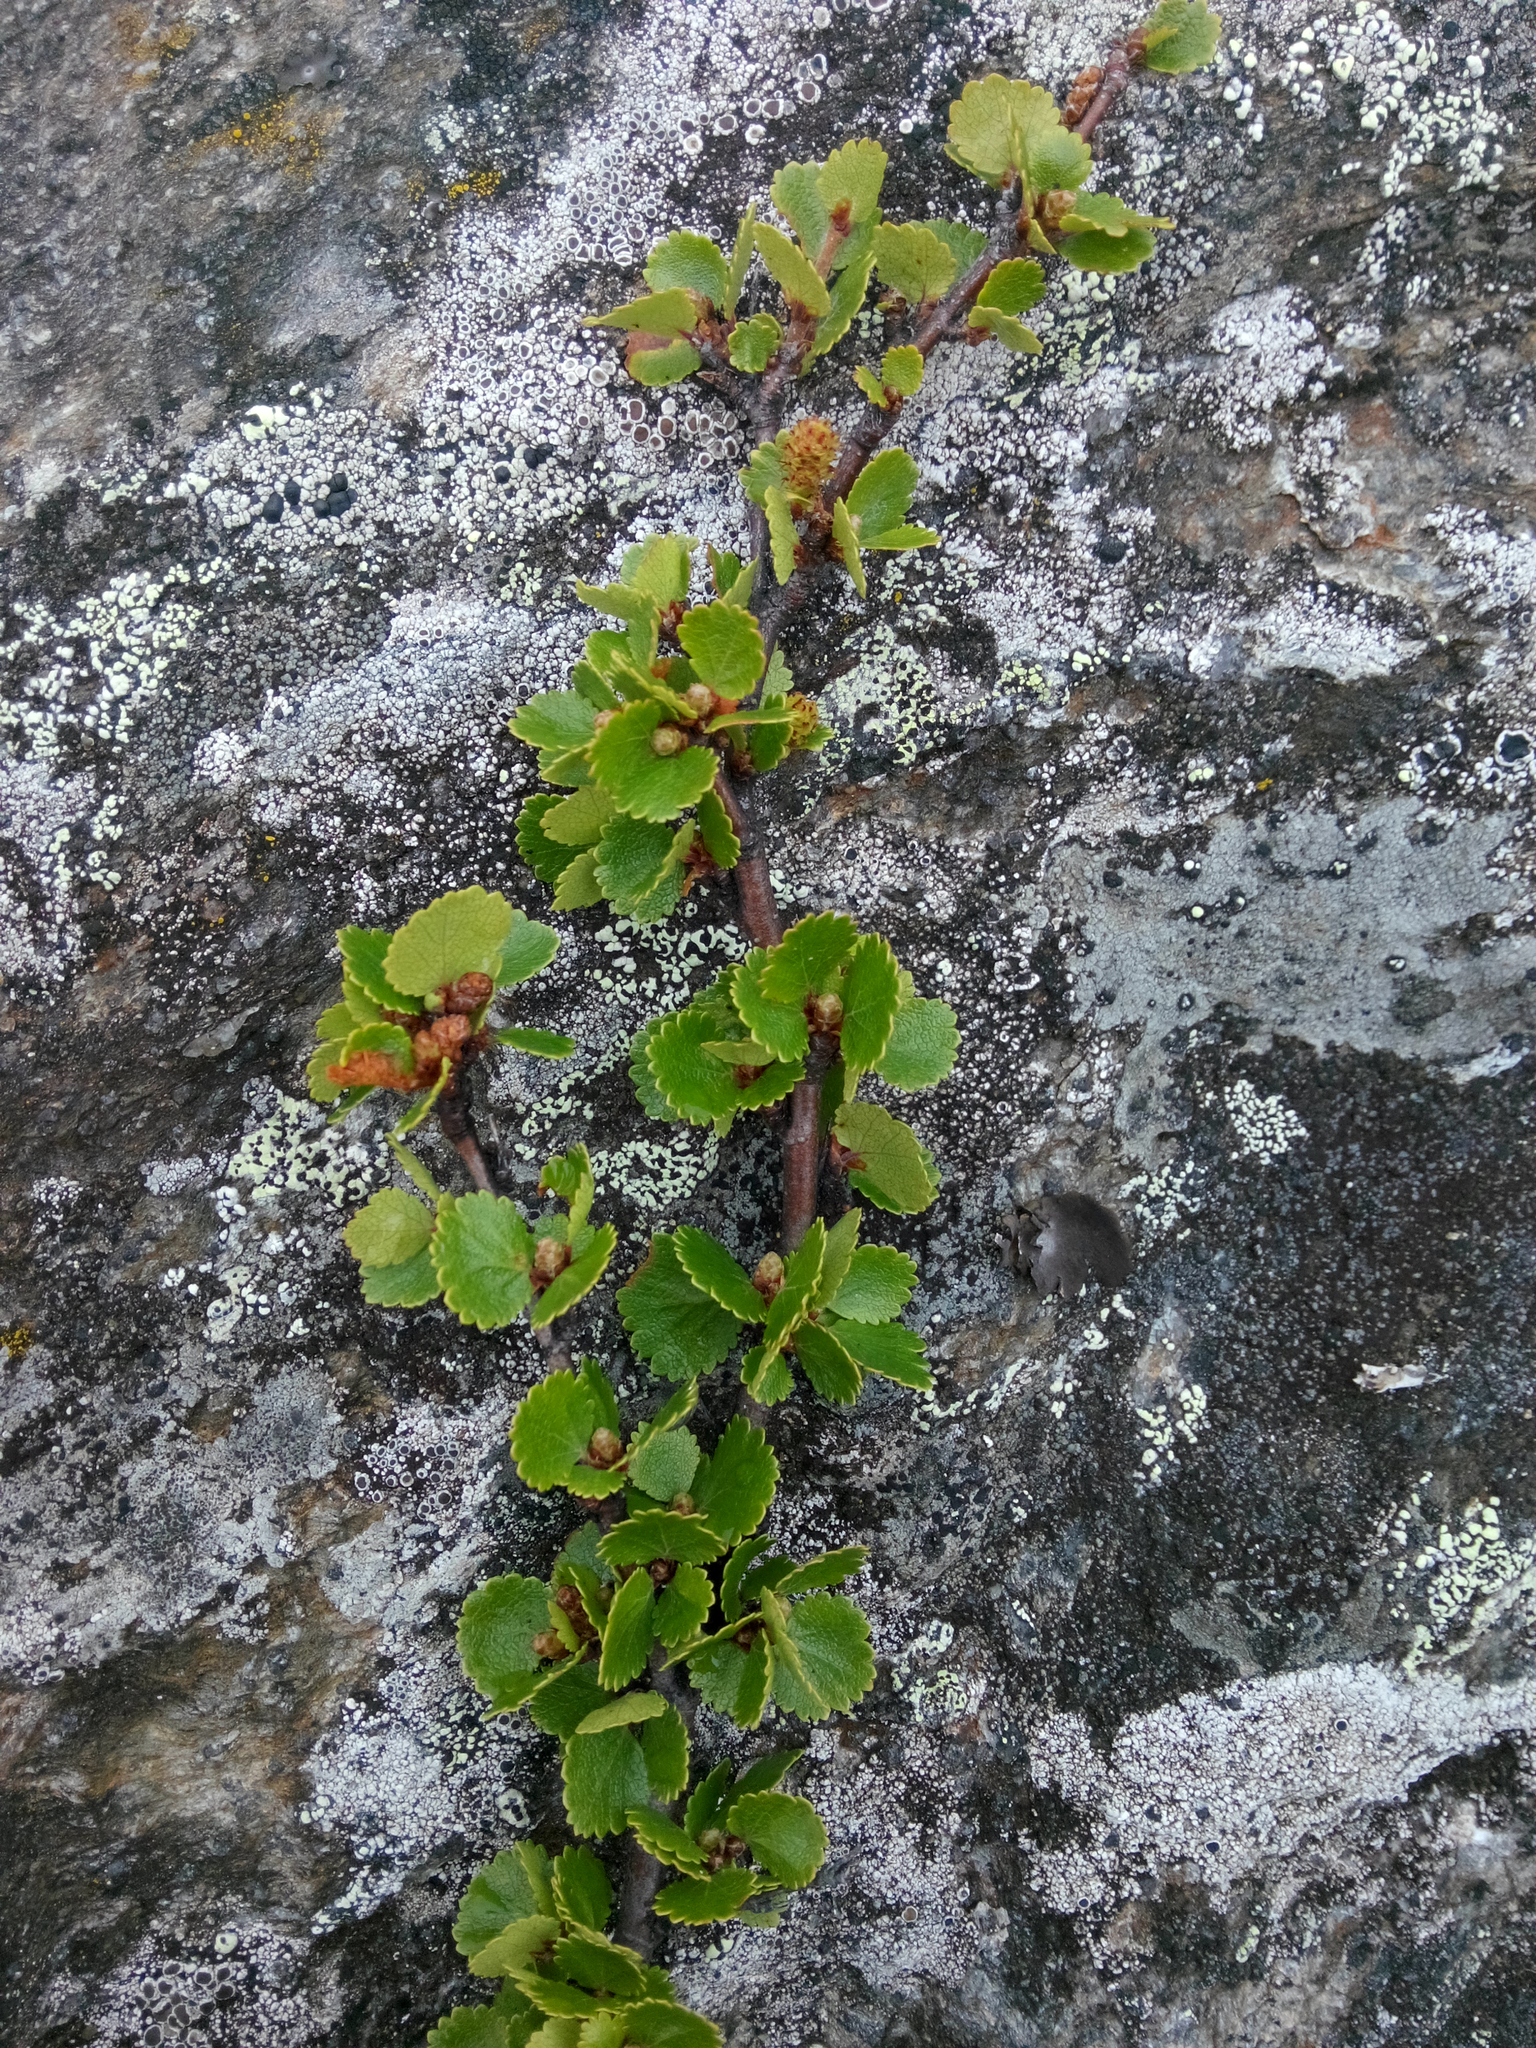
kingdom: Plantae
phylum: Tracheophyta
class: Magnoliopsida
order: Fagales
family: Betulaceae
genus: Betula
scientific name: Betula nana
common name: Arctic dwarf birch
